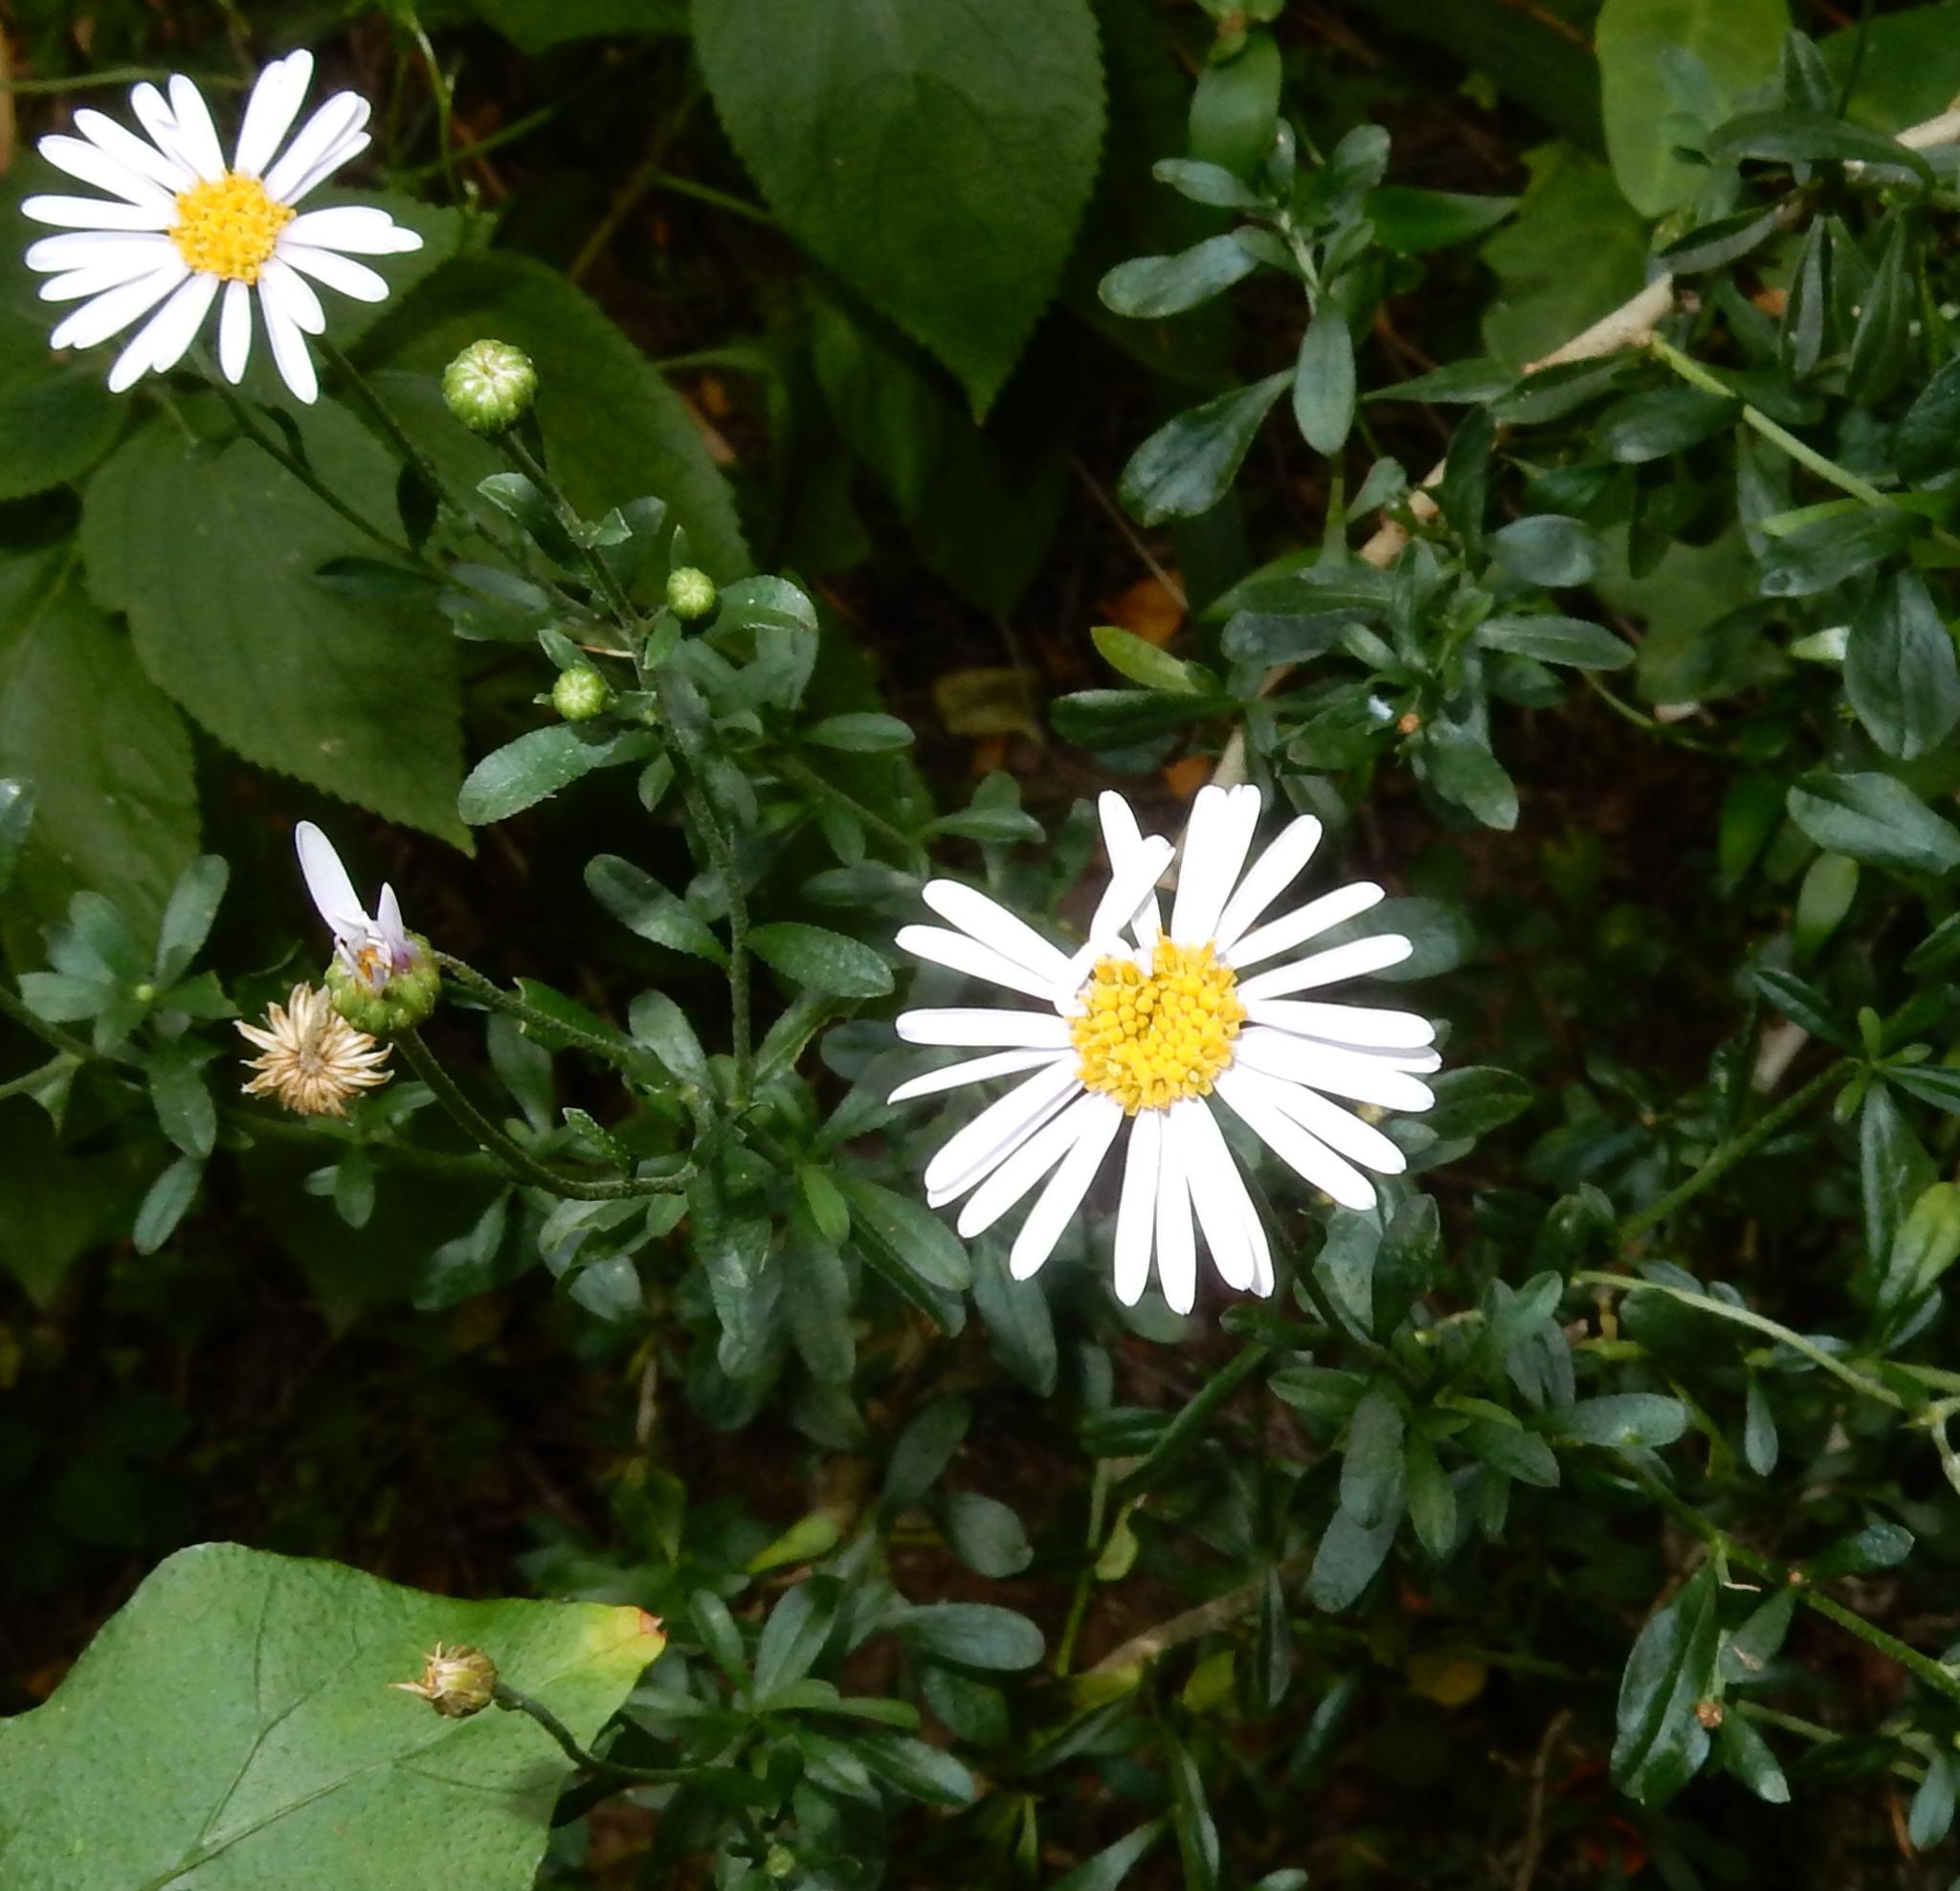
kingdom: Plantae
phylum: Tracheophyta
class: Magnoliopsida
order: Asterales
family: Asteraceae
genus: Felicia
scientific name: Felicia erigeroides
